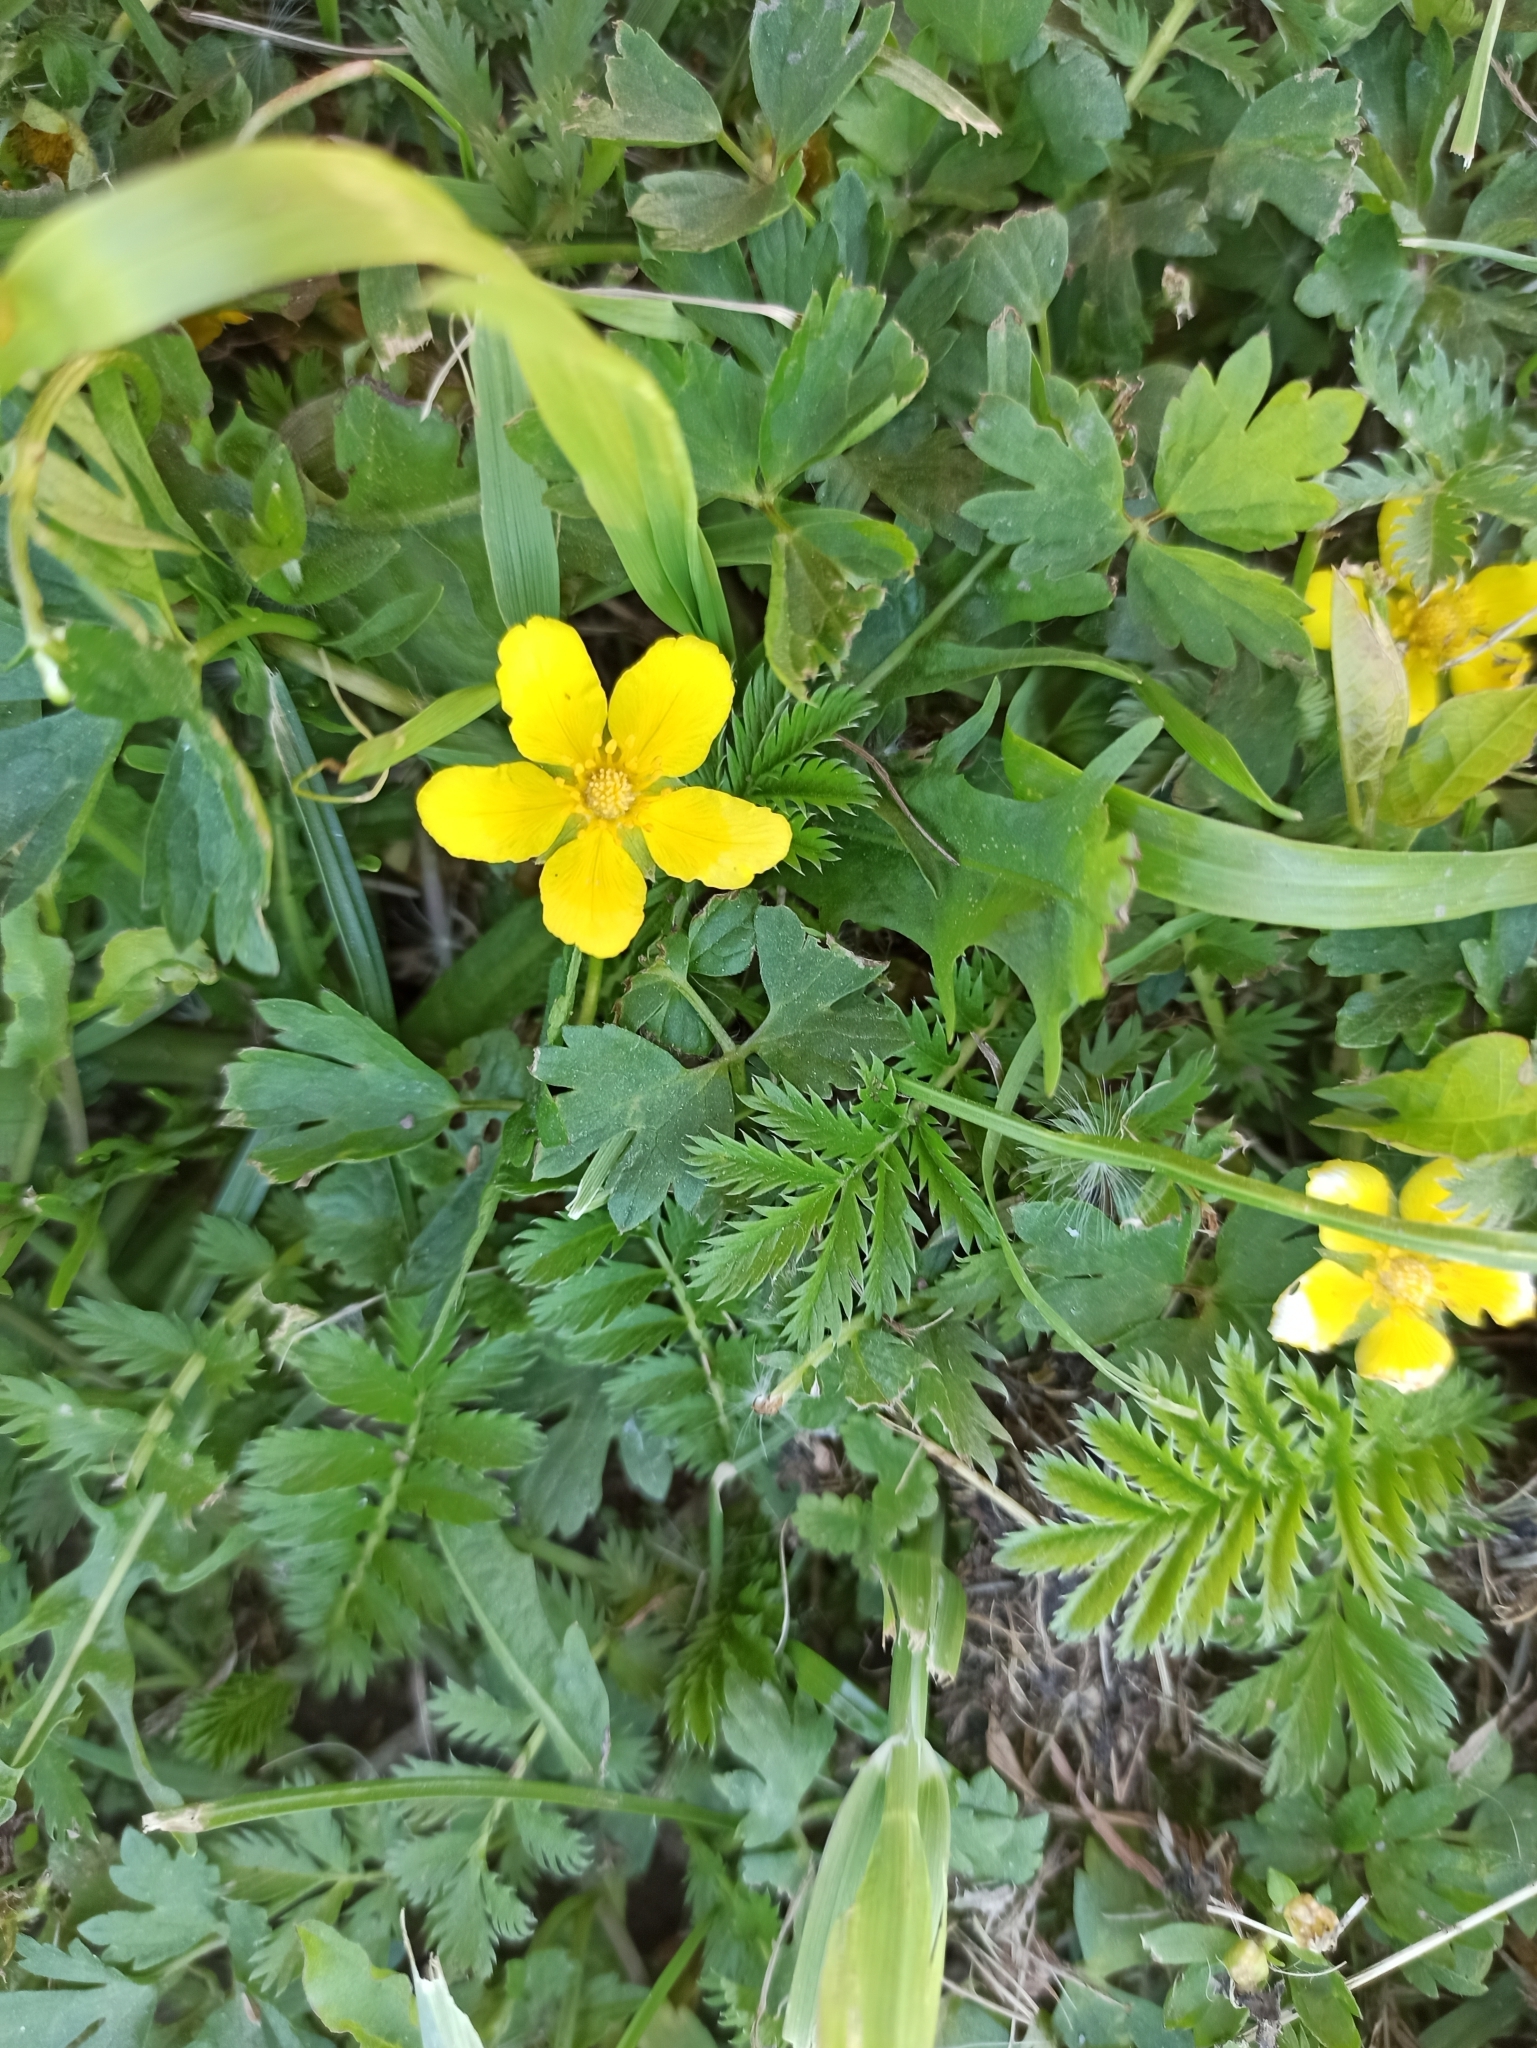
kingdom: Plantae
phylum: Tracheophyta
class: Magnoliopsida
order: Rosales
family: Rosaceae
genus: Argentina
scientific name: Argentina anserina
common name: Common silverweed
